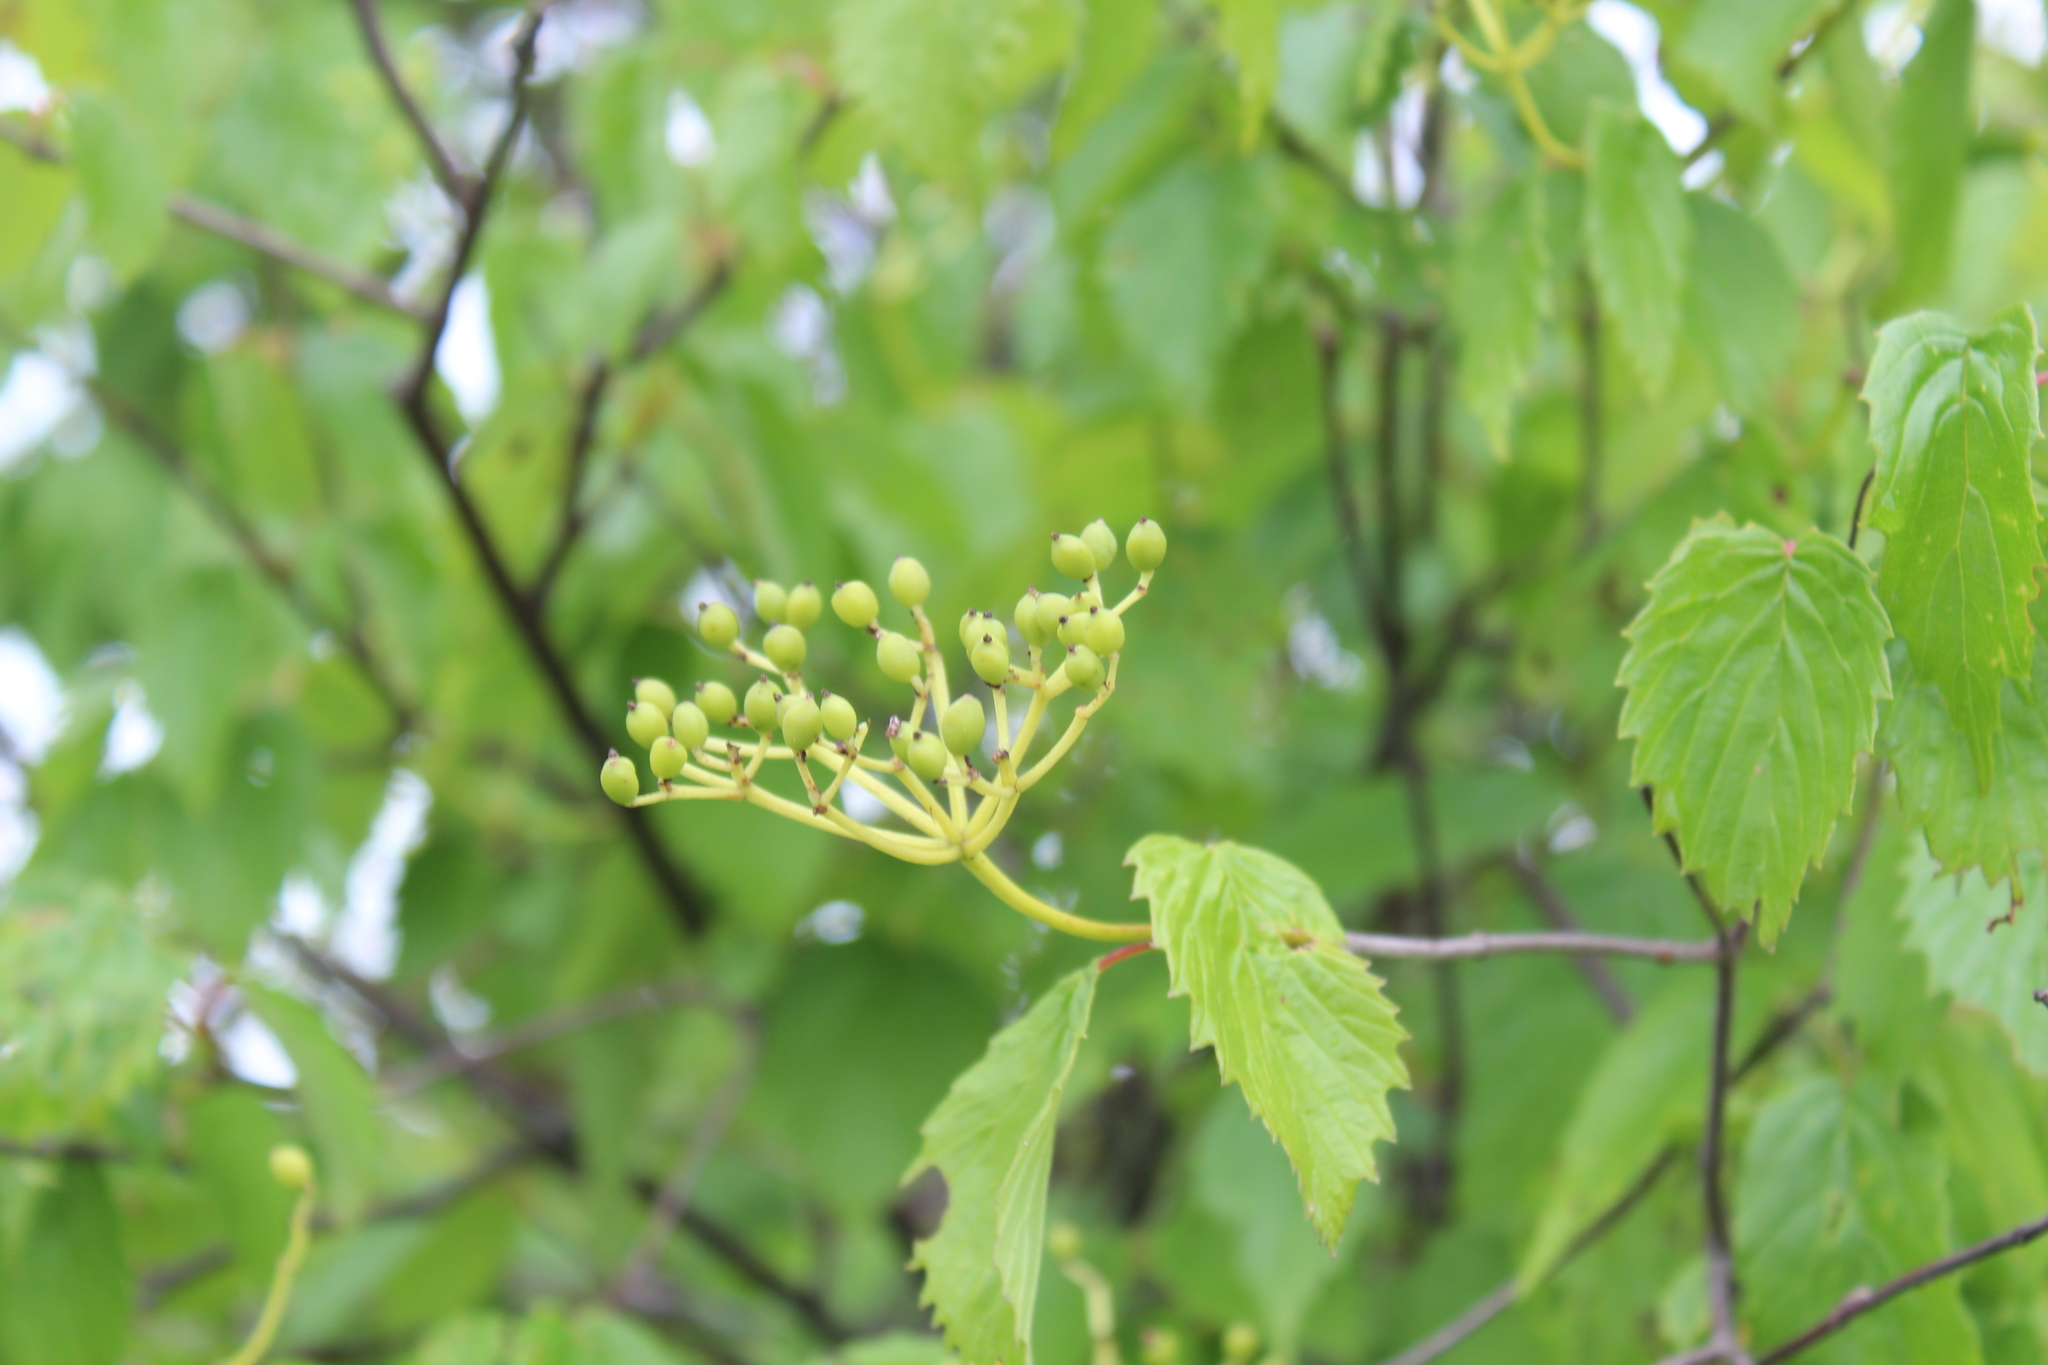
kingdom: Plantae
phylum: Tracheophyta
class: Magnoliopsida
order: Dipsacales
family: Viburnaceae
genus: Viburnum
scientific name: Viburnum dentatum
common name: Arrow-wood
